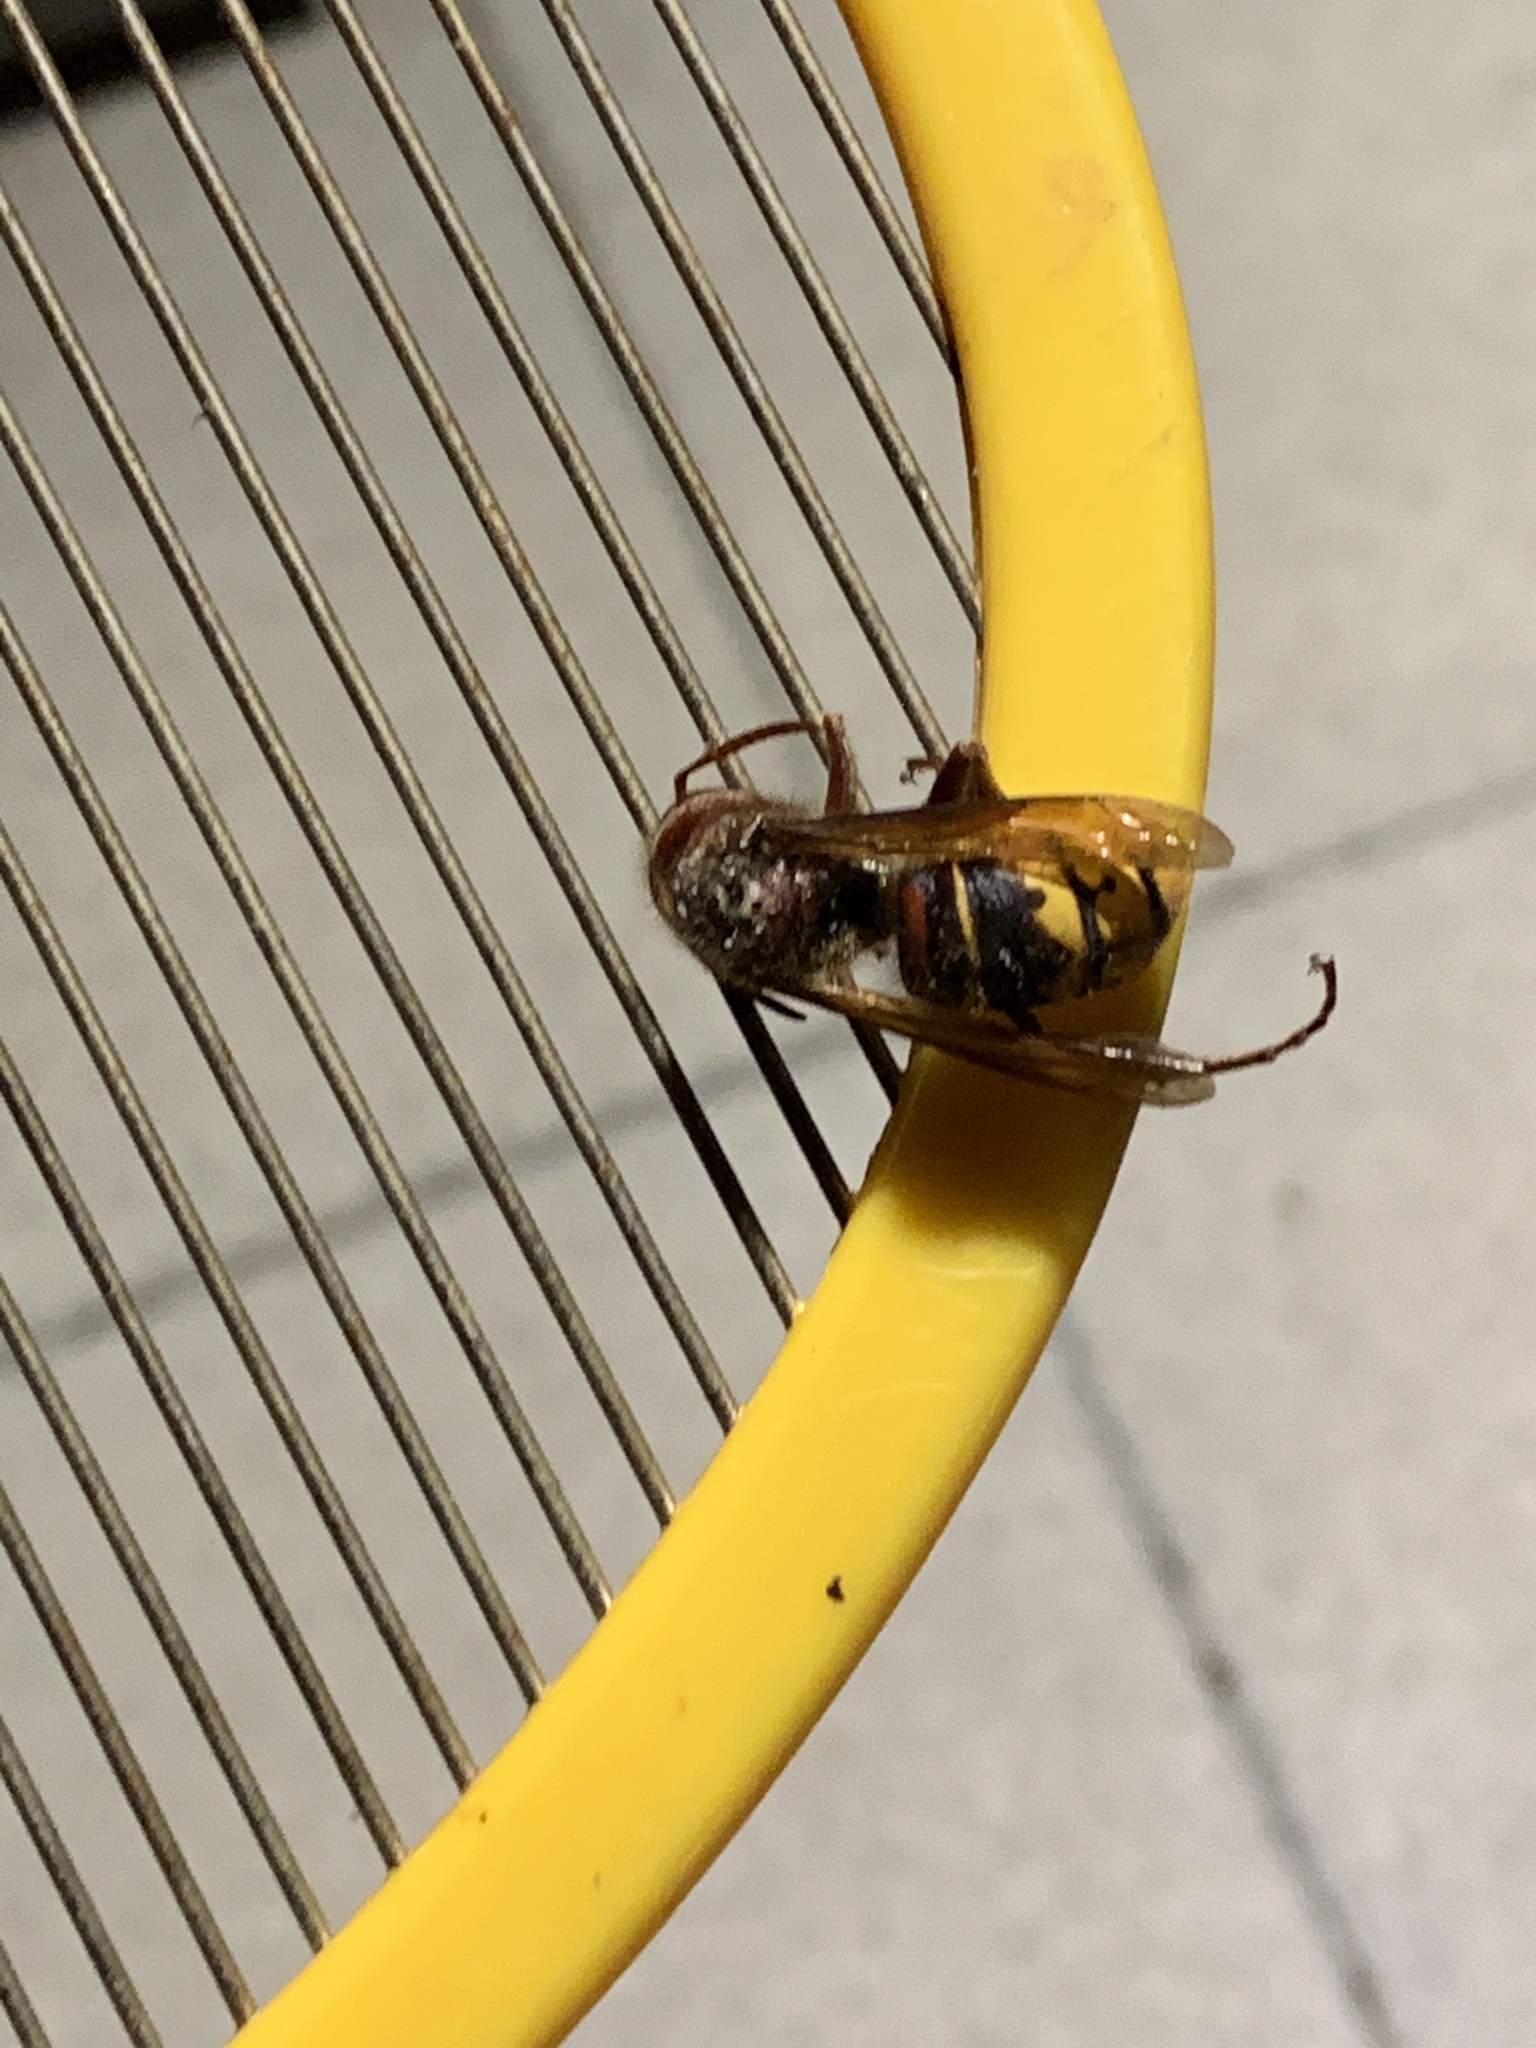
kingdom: Animalia
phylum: Arthropoda
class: Insecta
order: Hymenoptera
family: Vespidae
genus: Vespa
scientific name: Vespa crabro
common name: Hornet
